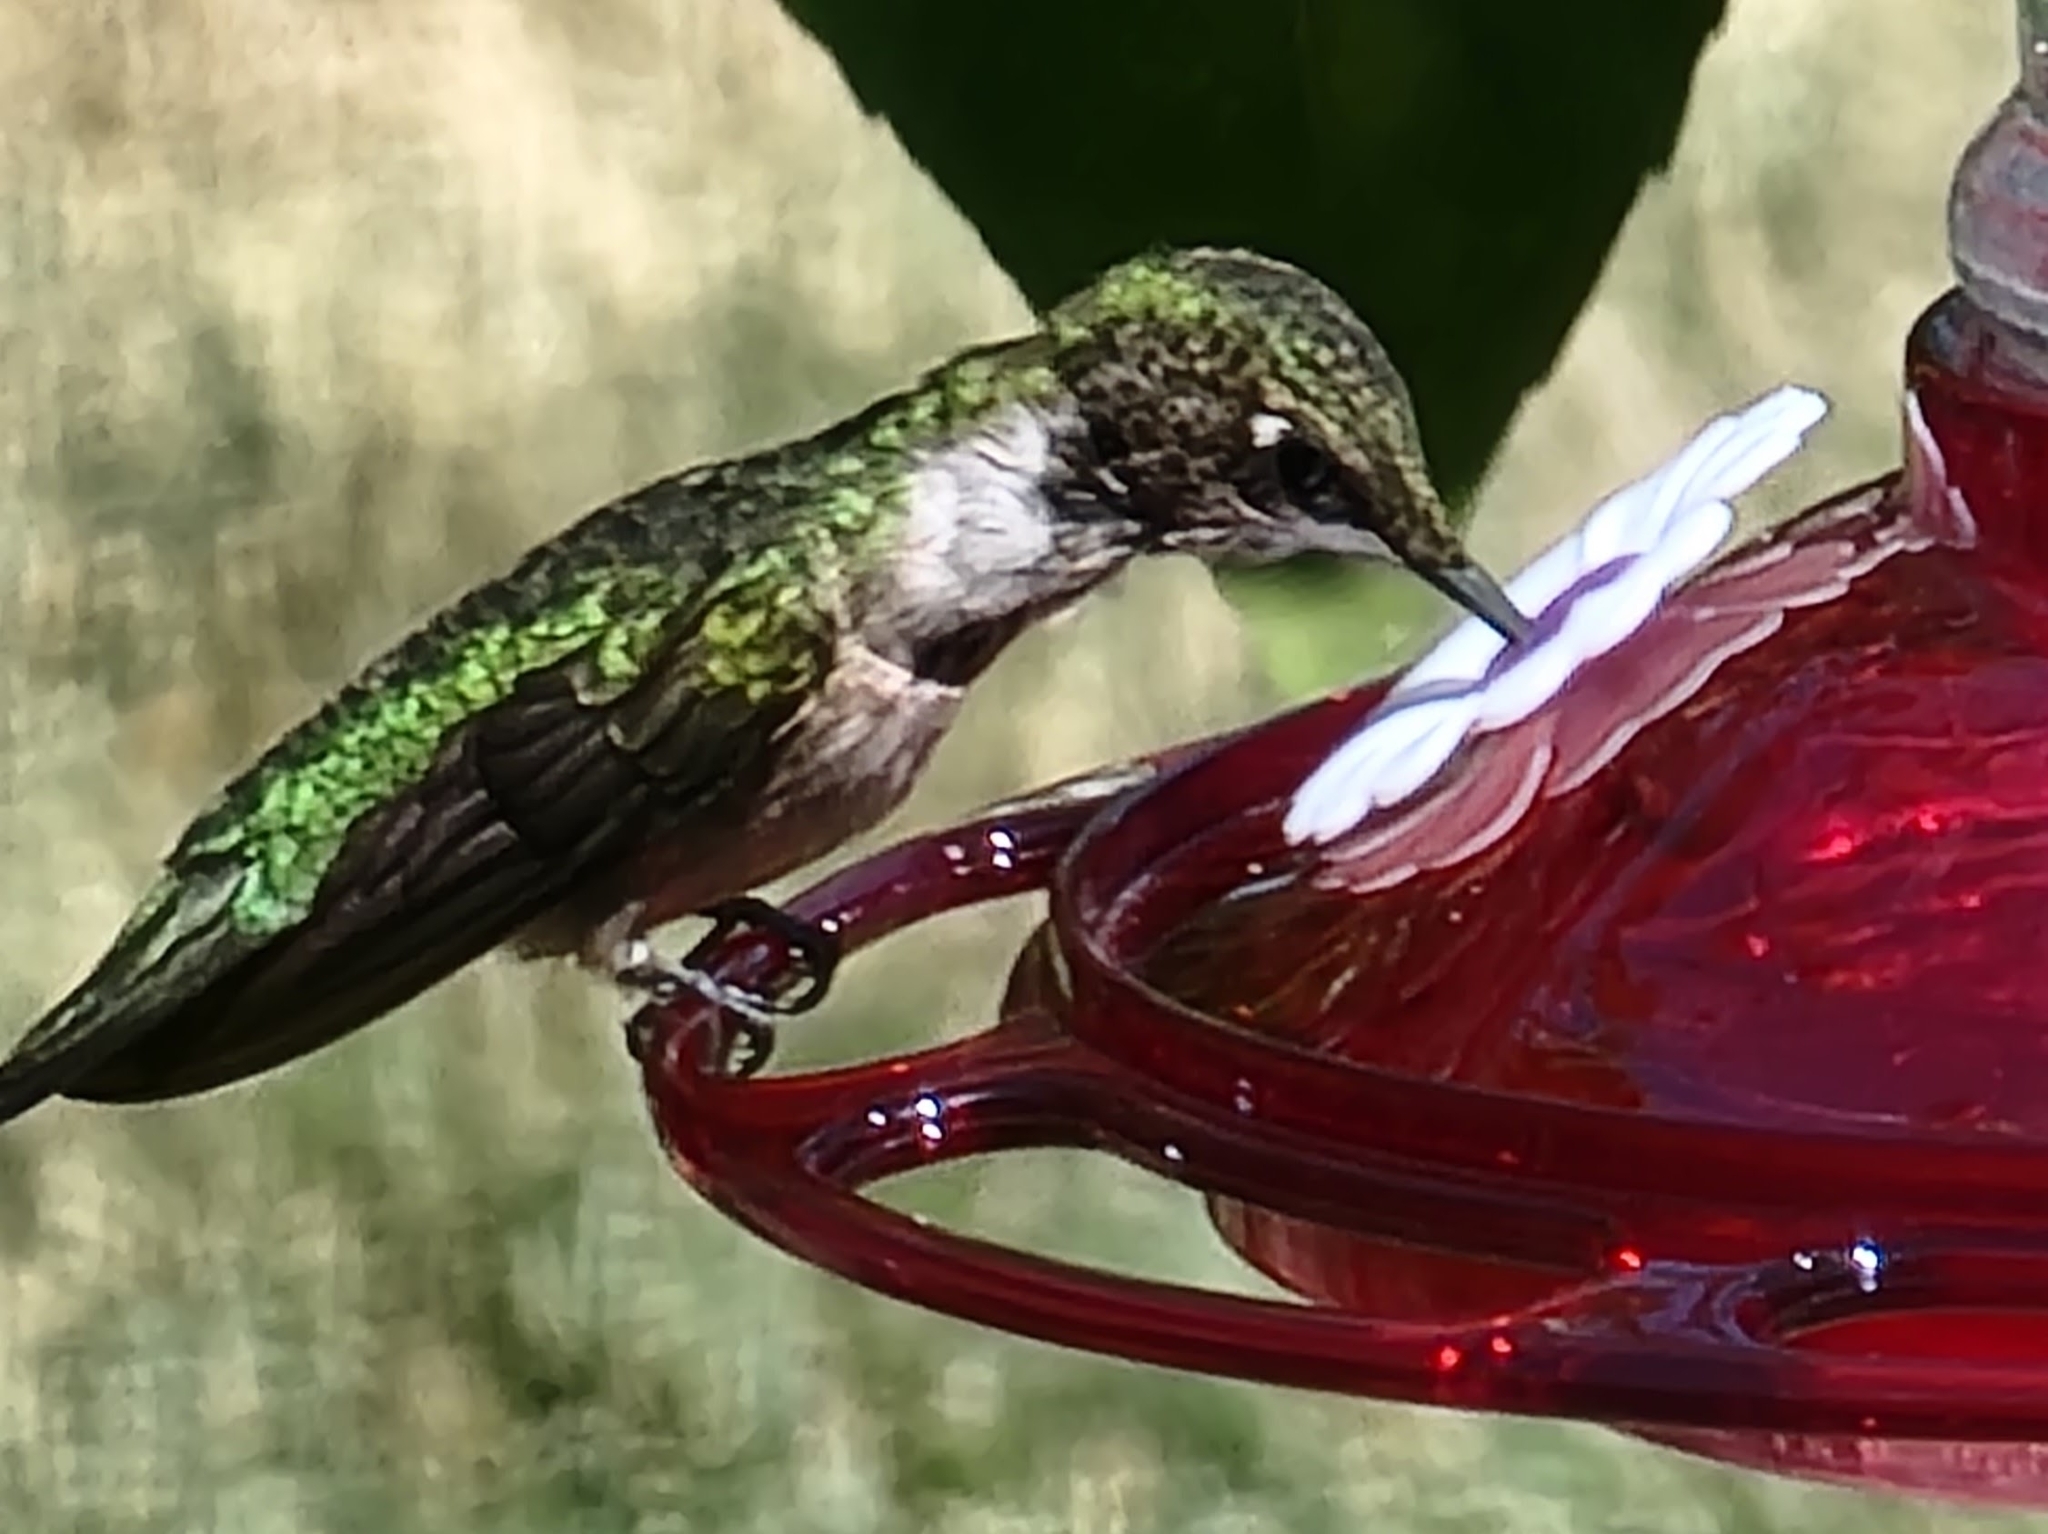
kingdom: Animalia
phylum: Chordata
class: Aves
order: Apodiformes
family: Trochilidae
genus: Archilochus
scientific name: Archilochus colubris
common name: Ruby-throated hummingbird
